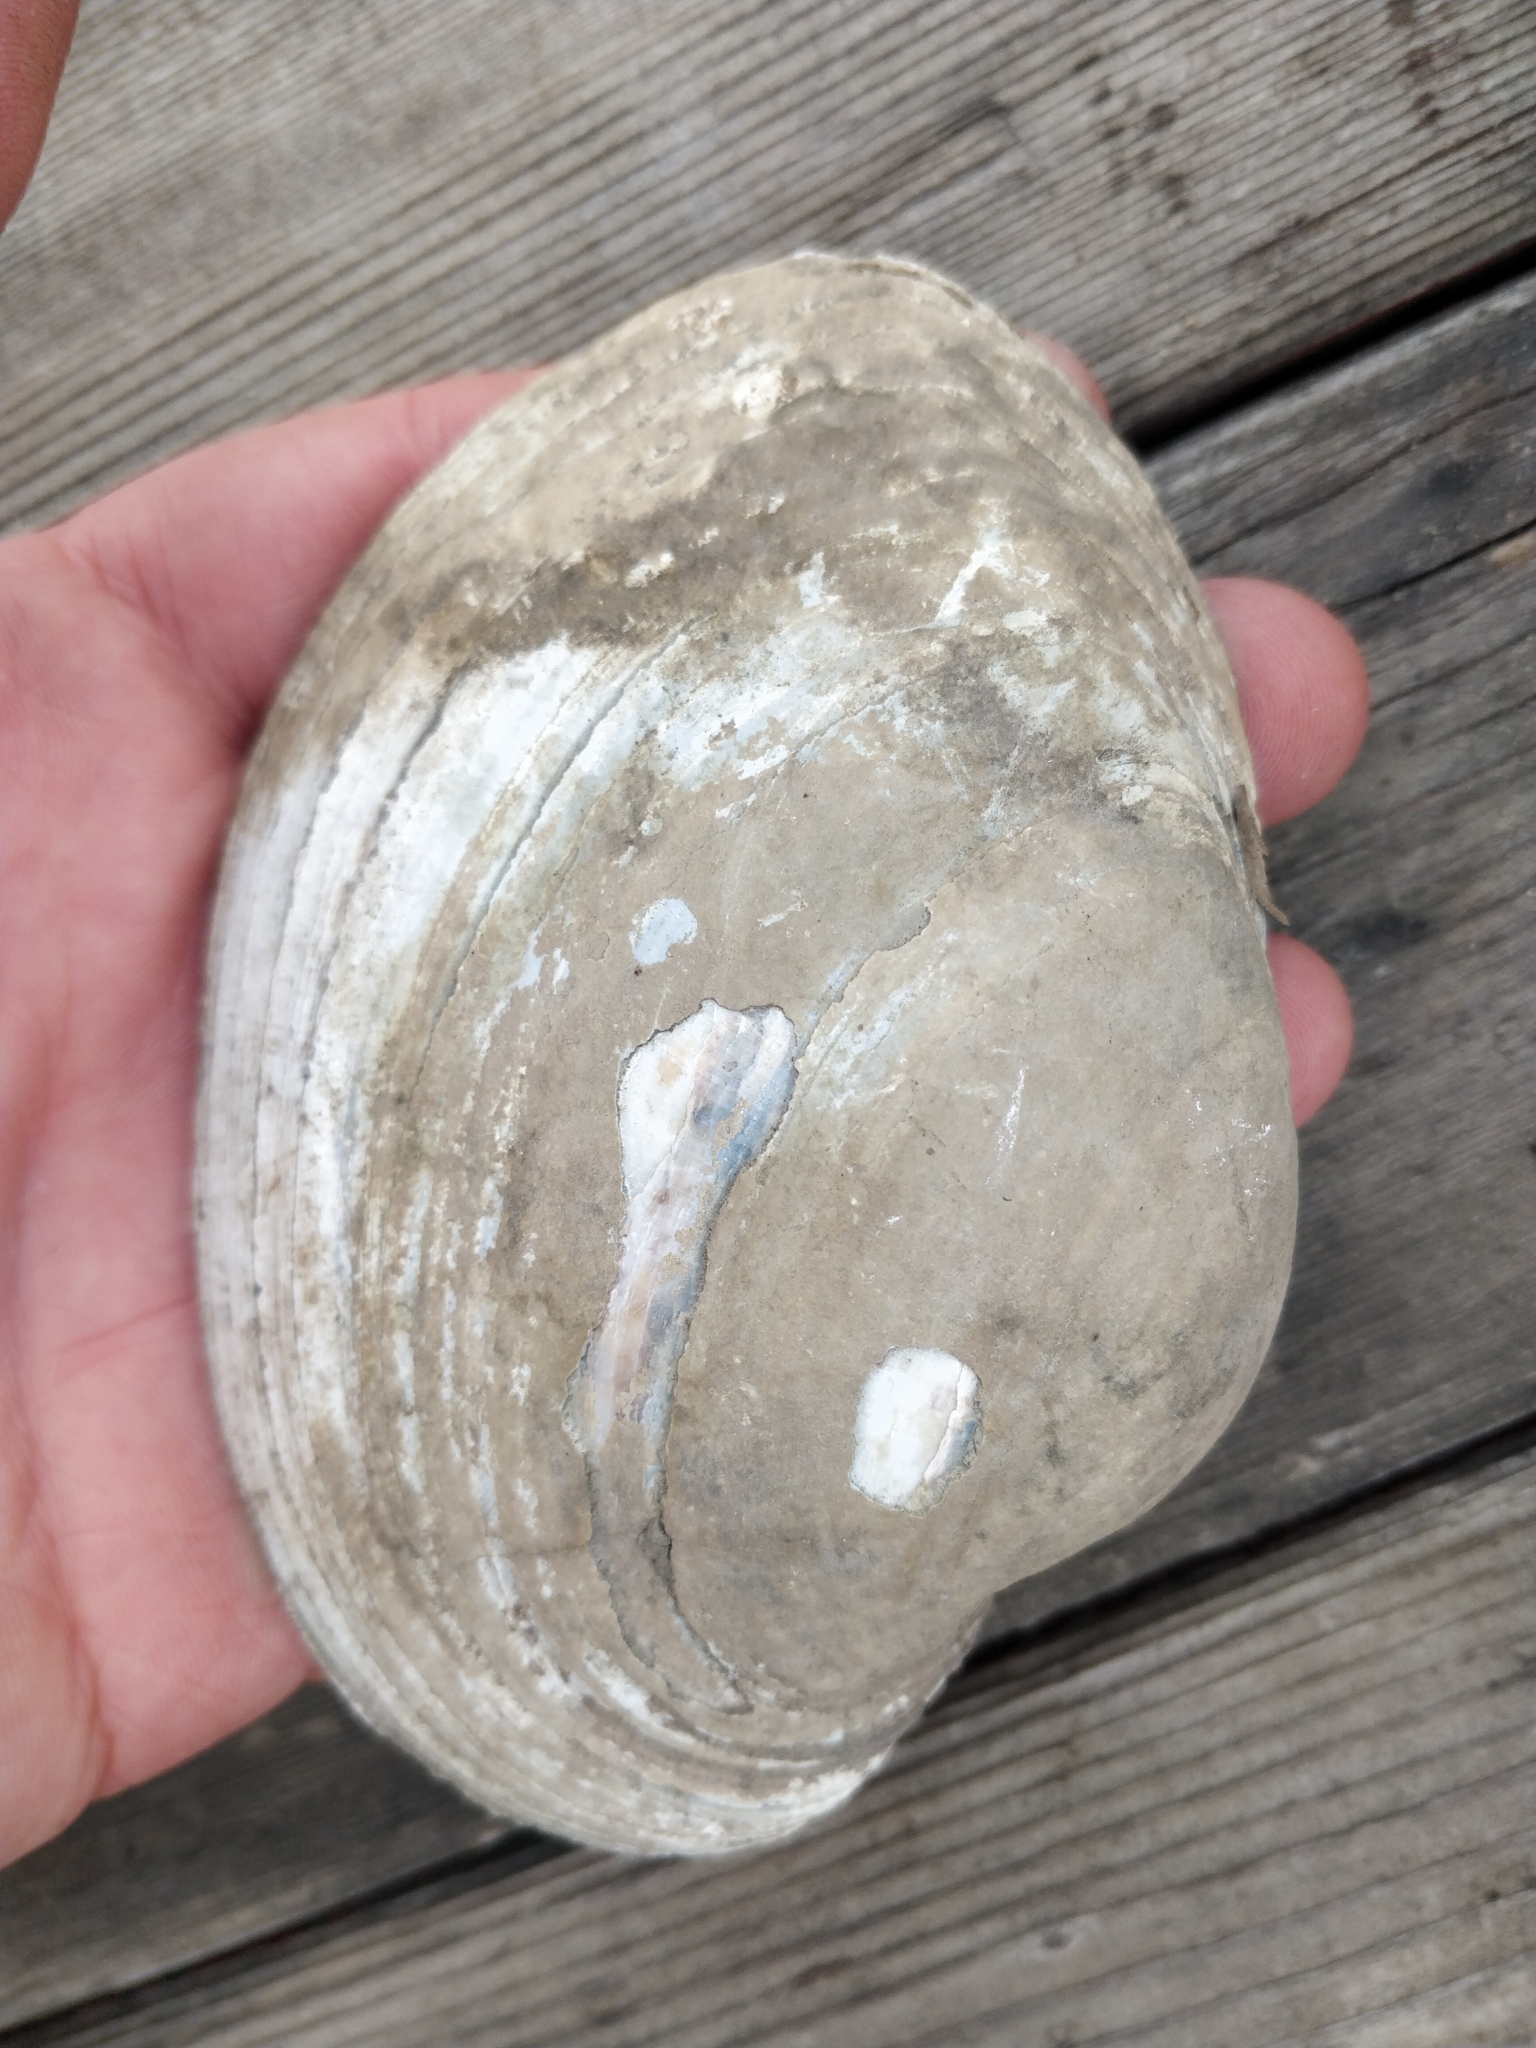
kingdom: Animalia
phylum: Mollusca
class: Bivalvia
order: Unionida
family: Unionidae
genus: Lampsilis
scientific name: Lampsilis cardium
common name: Plain pocketbook
